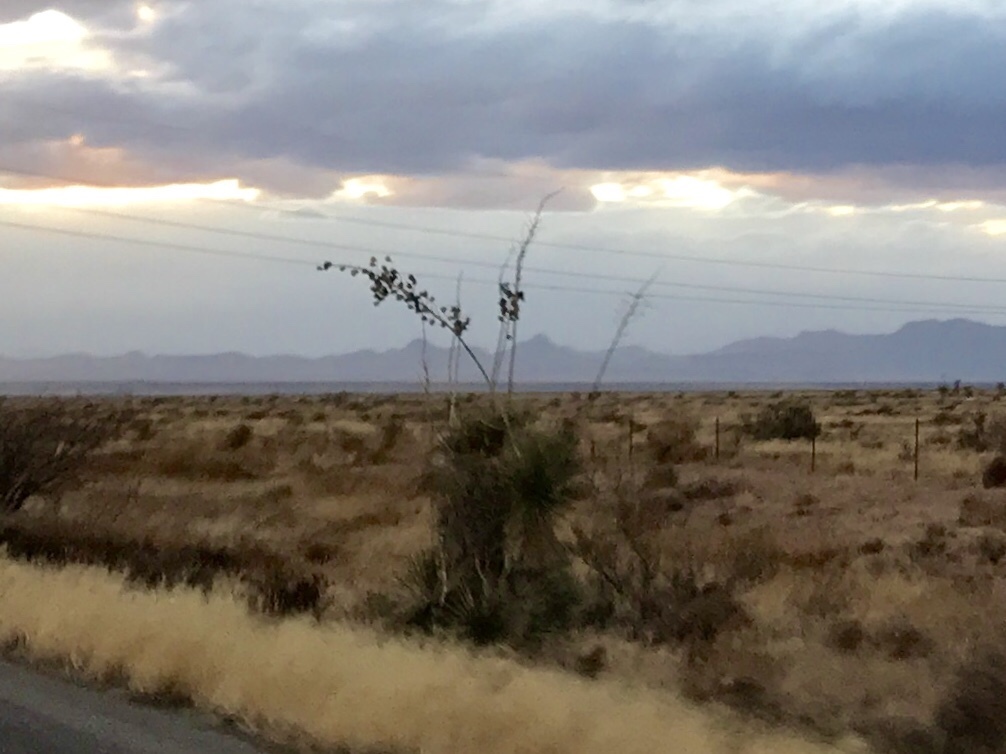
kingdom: Plantae
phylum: Tracheophyta
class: Liliopsida
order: Asparagales
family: Asparagaceae
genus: Yucca
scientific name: Yucca elata
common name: Palmella
